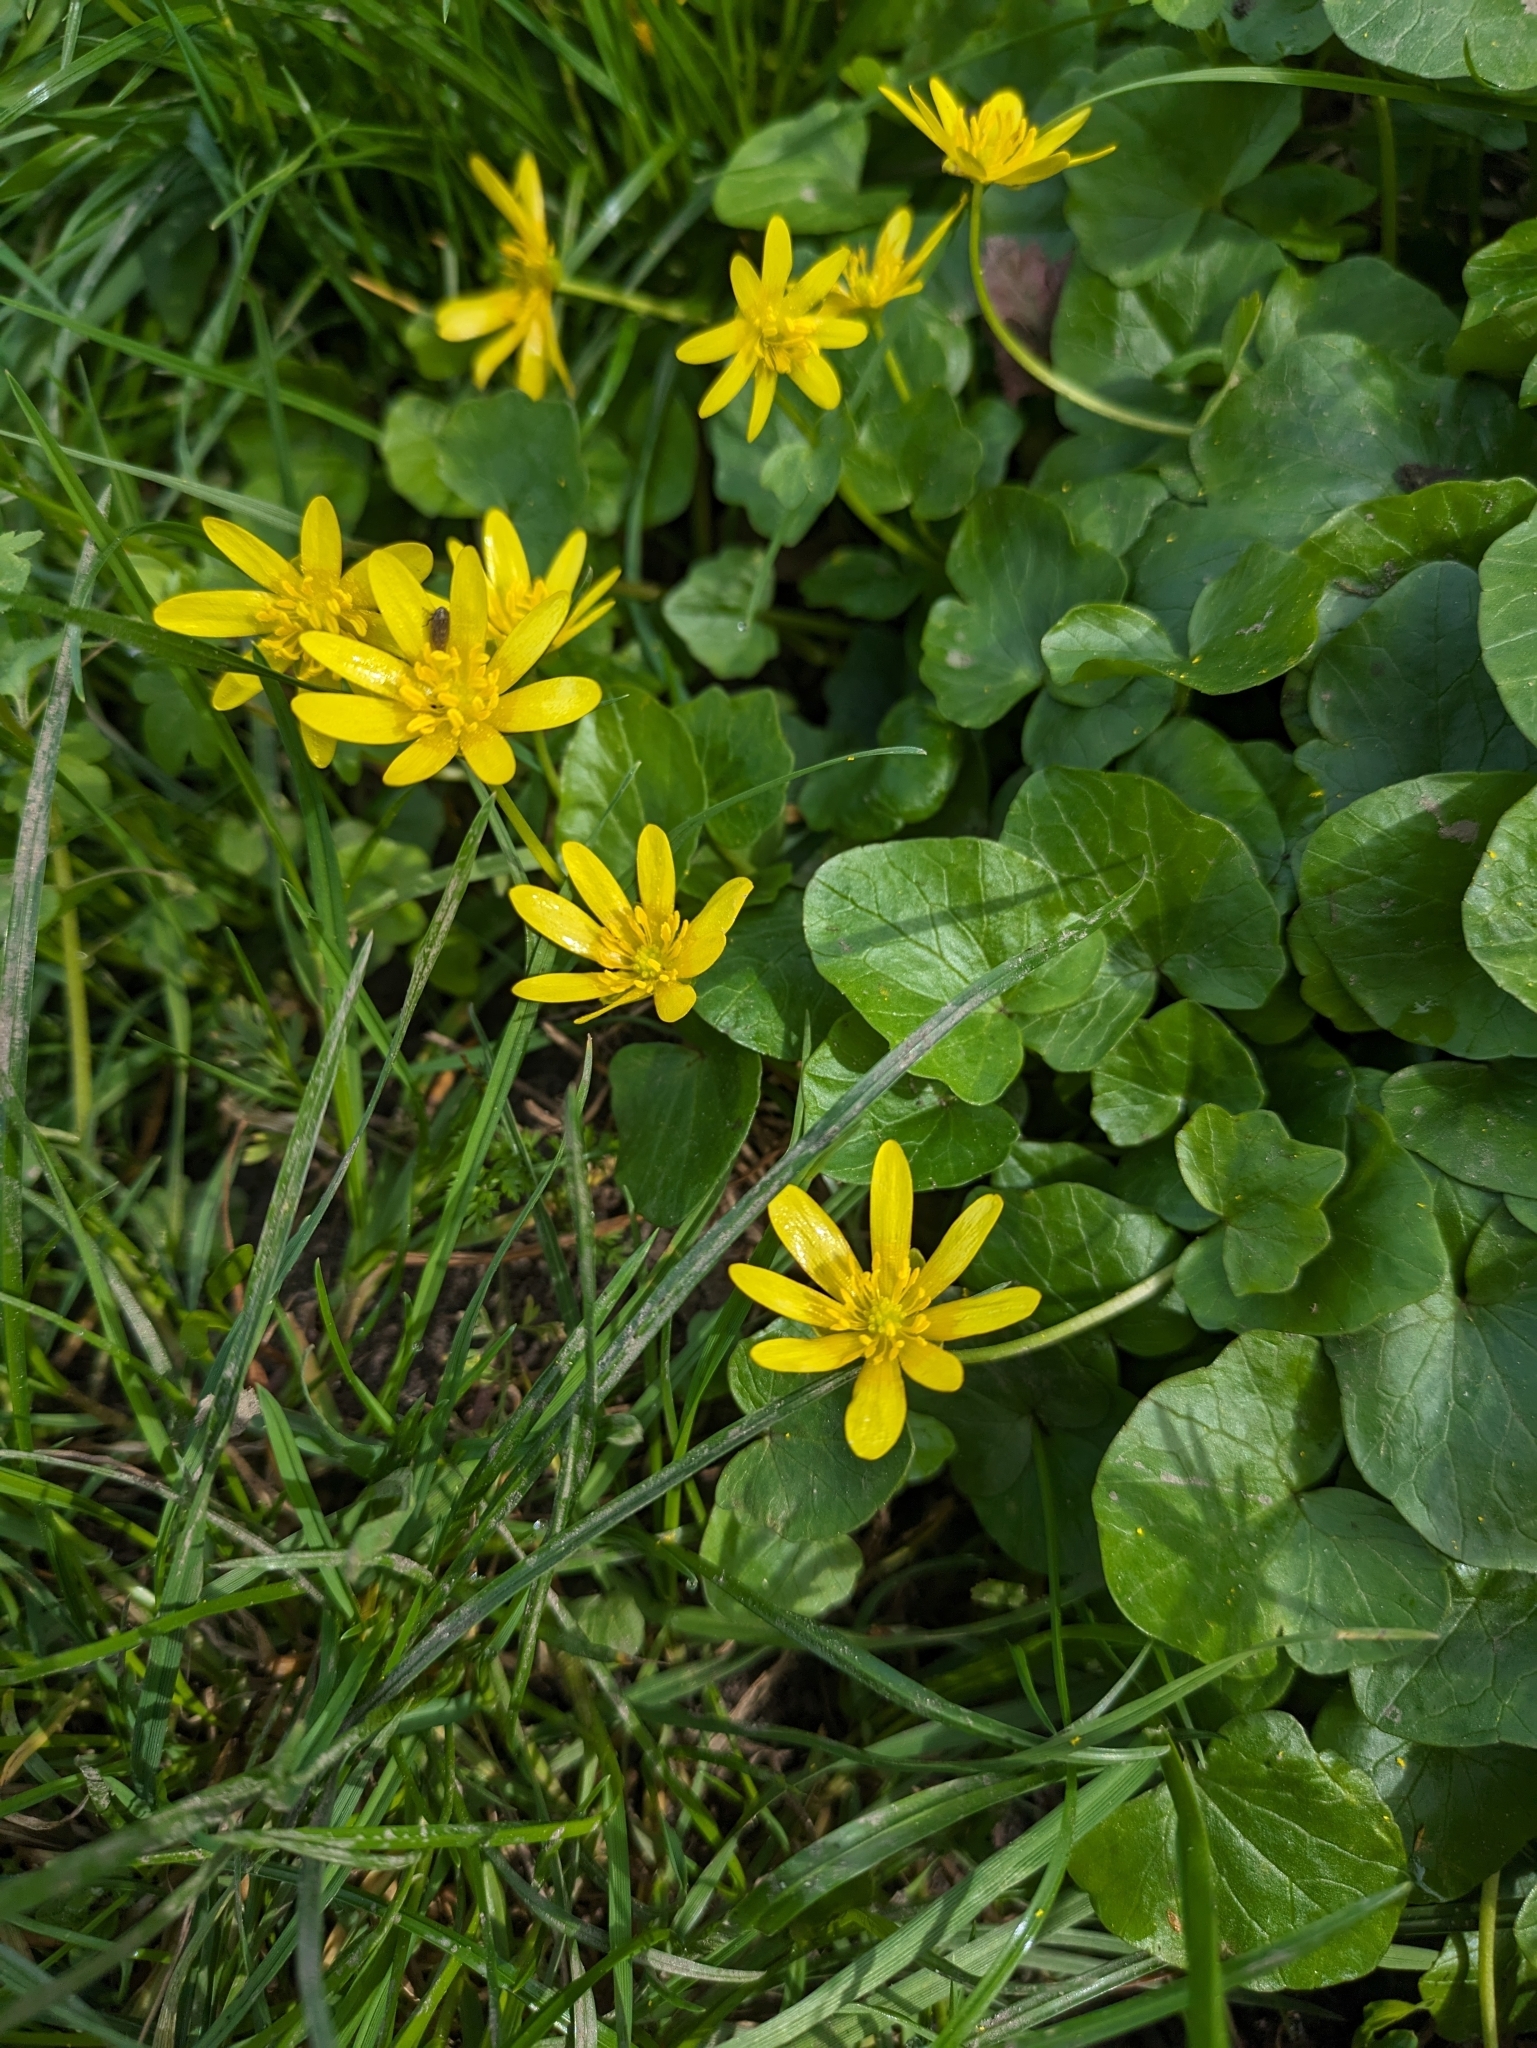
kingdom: Plantae
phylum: Tracheophyta
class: Magnoliopsida
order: Ranunculales
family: Ranunculaceae
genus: Ficaria
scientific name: Ficaria verna
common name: Lesser celandine
